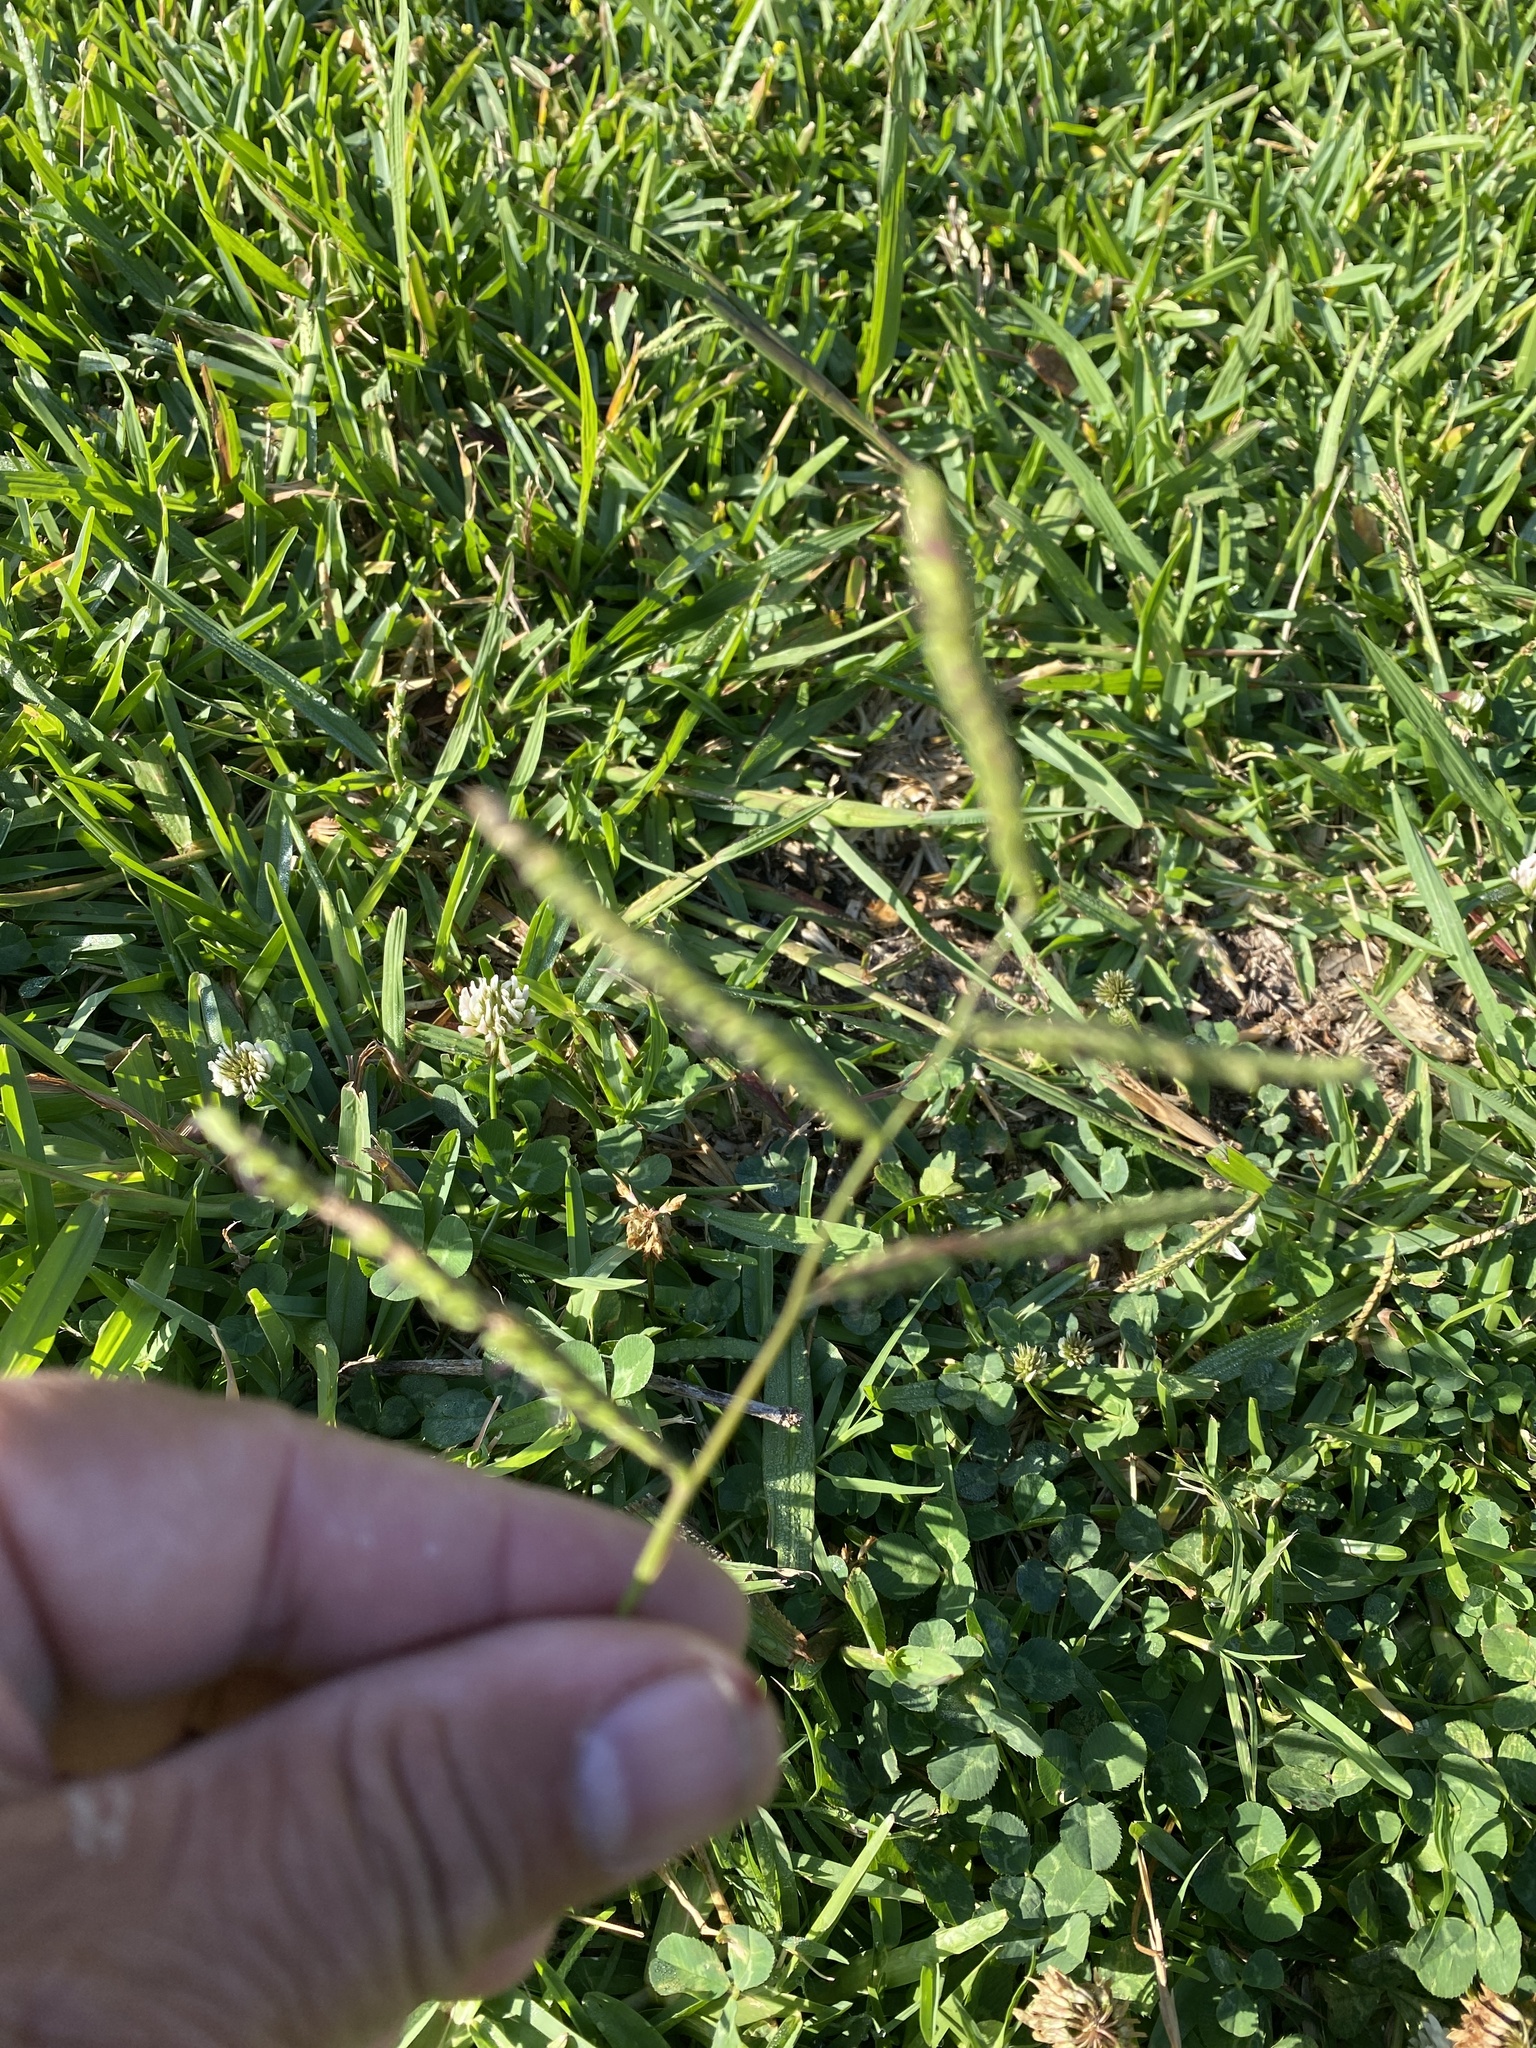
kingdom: Plantae
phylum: Tracheophyta
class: Liliopsida
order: Poales
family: Poaceae
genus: Paspalum
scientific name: Paspalum dilatatum
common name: Dallisgrass
